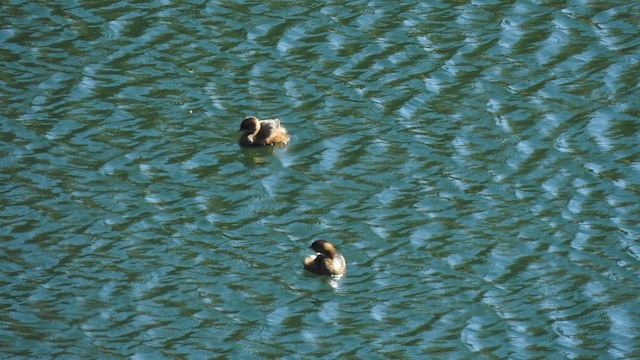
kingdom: Animalia
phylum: Chordata
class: Aves
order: Podicipediformes
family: Podicipedidae
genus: Podilymbus
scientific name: Podilymbus podiceps
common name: Pied-billed grebe
